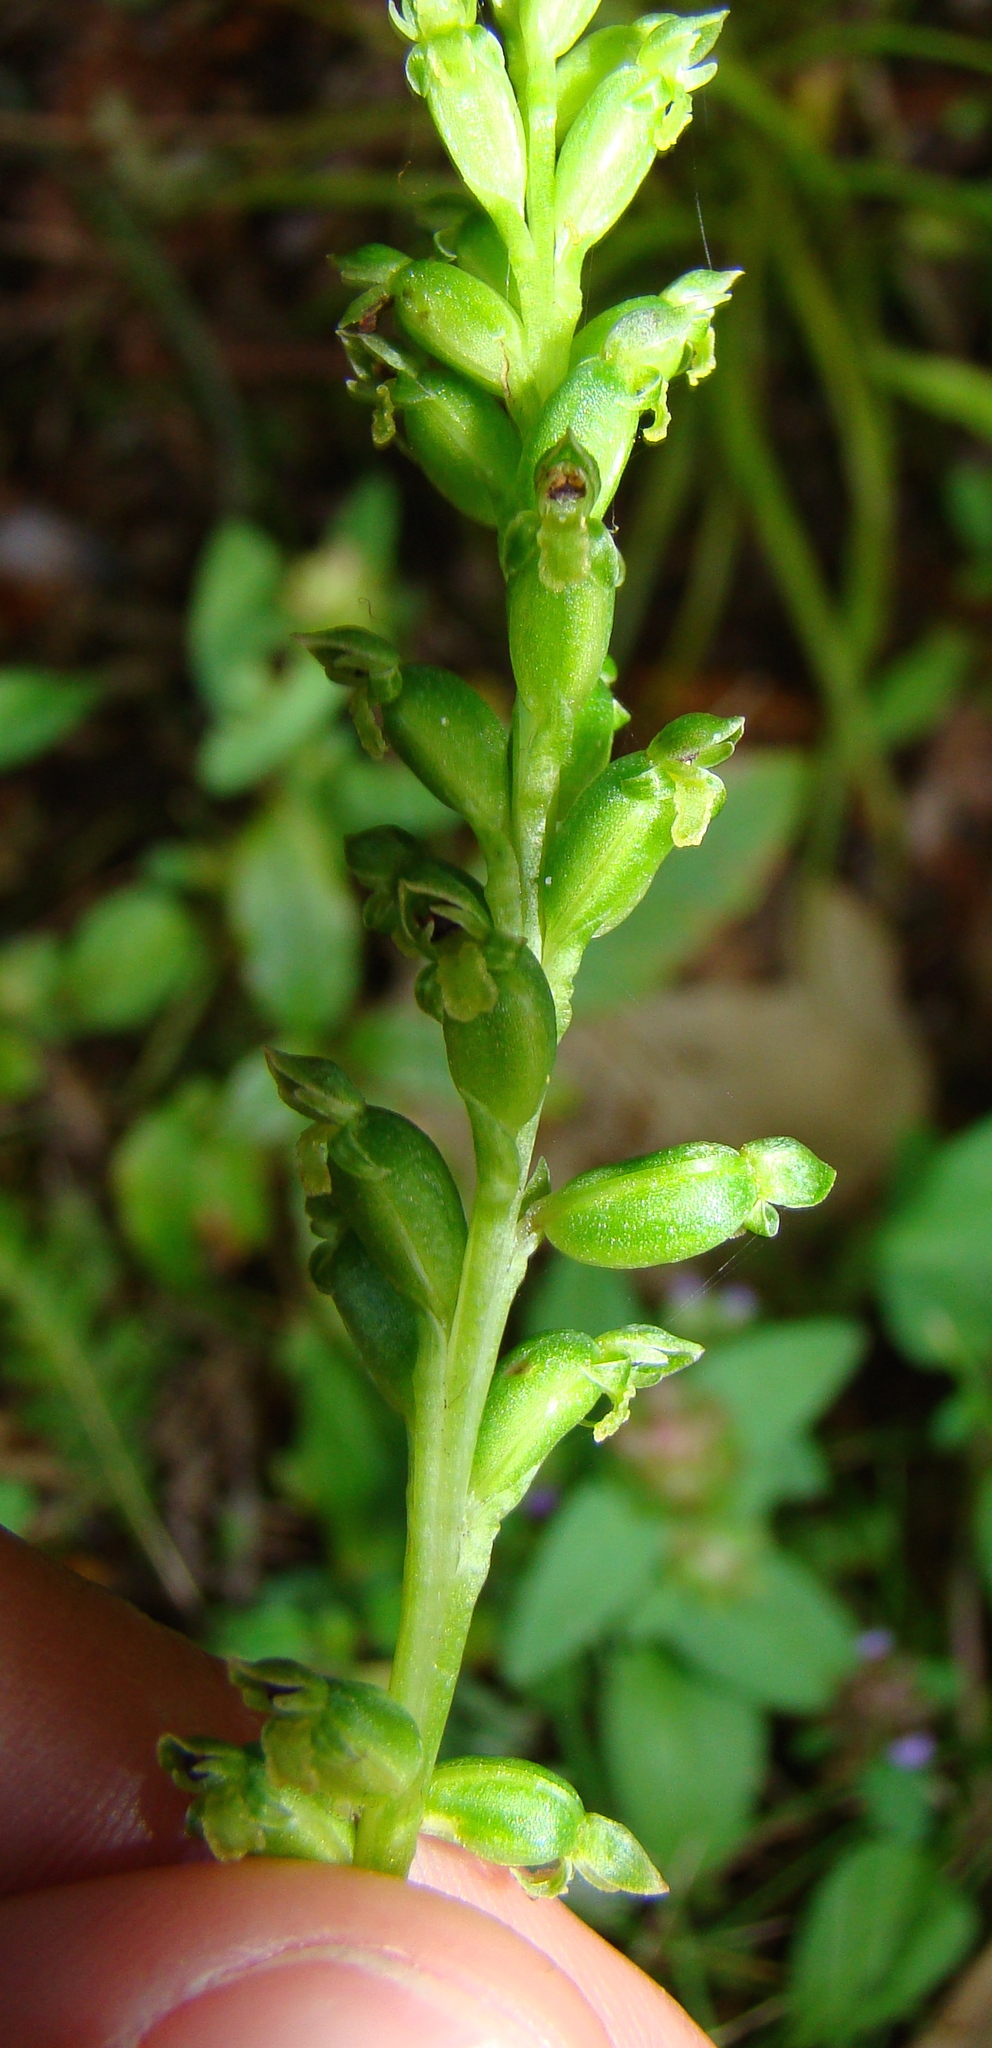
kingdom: Plantae
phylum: Tracheophyta
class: Liliopsida
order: Asparagales
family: Orchidaceae
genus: Microtis
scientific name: Microtis unifolia
